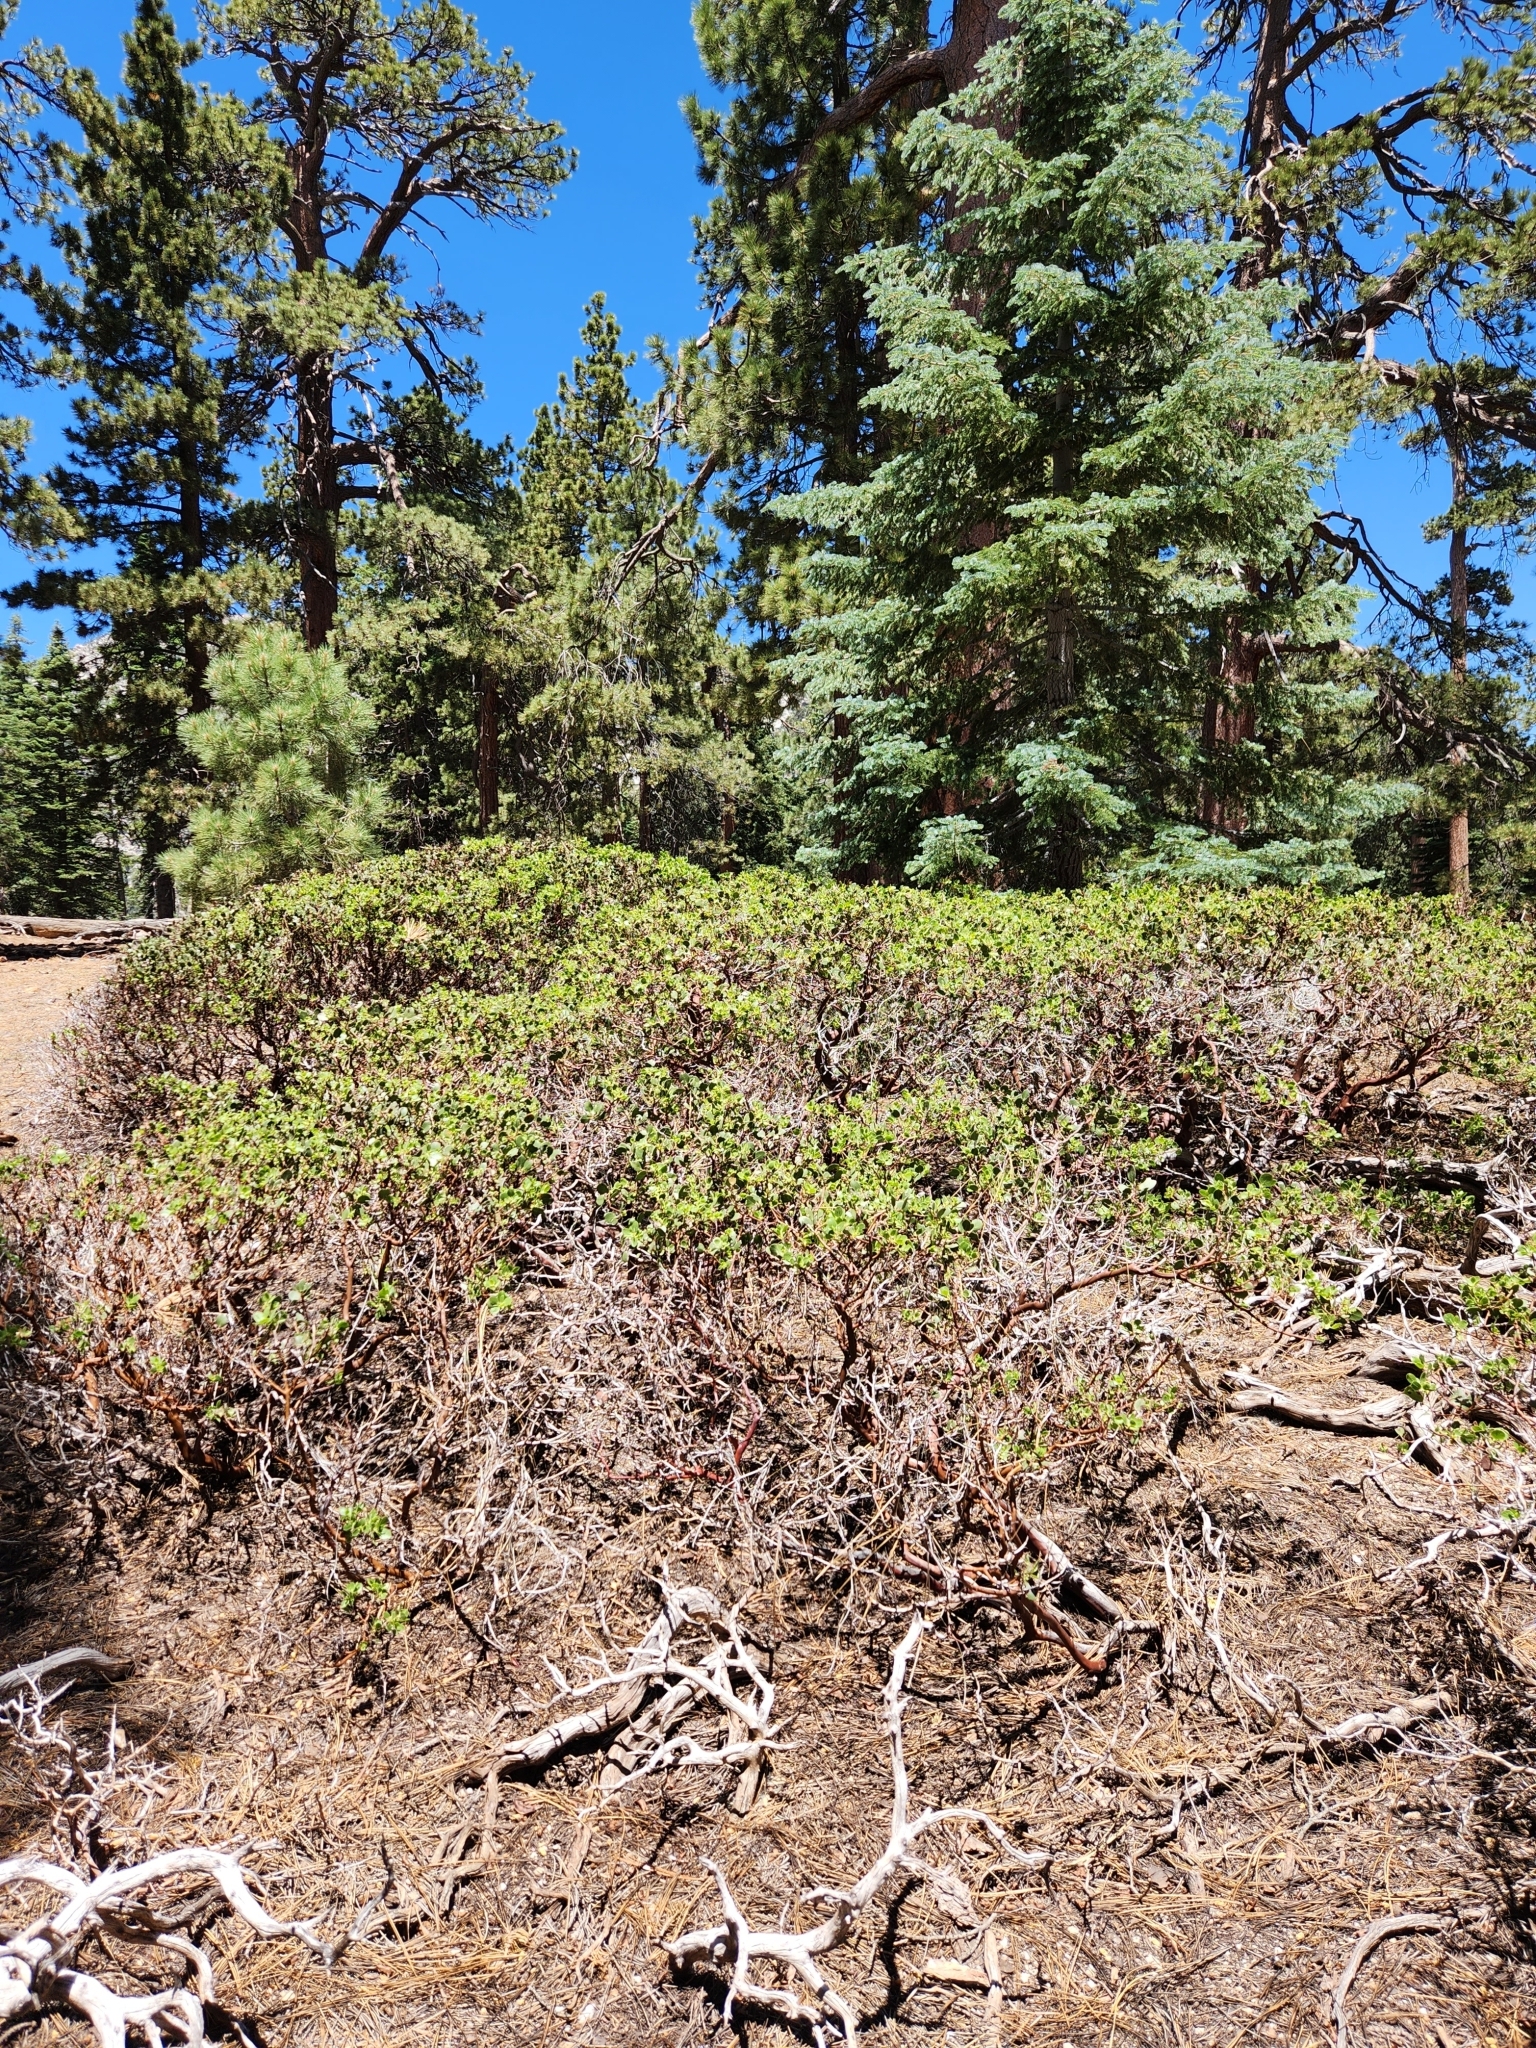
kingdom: Plantae
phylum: Tracheophyta
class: Magnoliopsida
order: Ericales
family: Ericaceae
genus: Arctostaphylos
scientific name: Arctostaphylos patula
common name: Green-leaf manzanita
